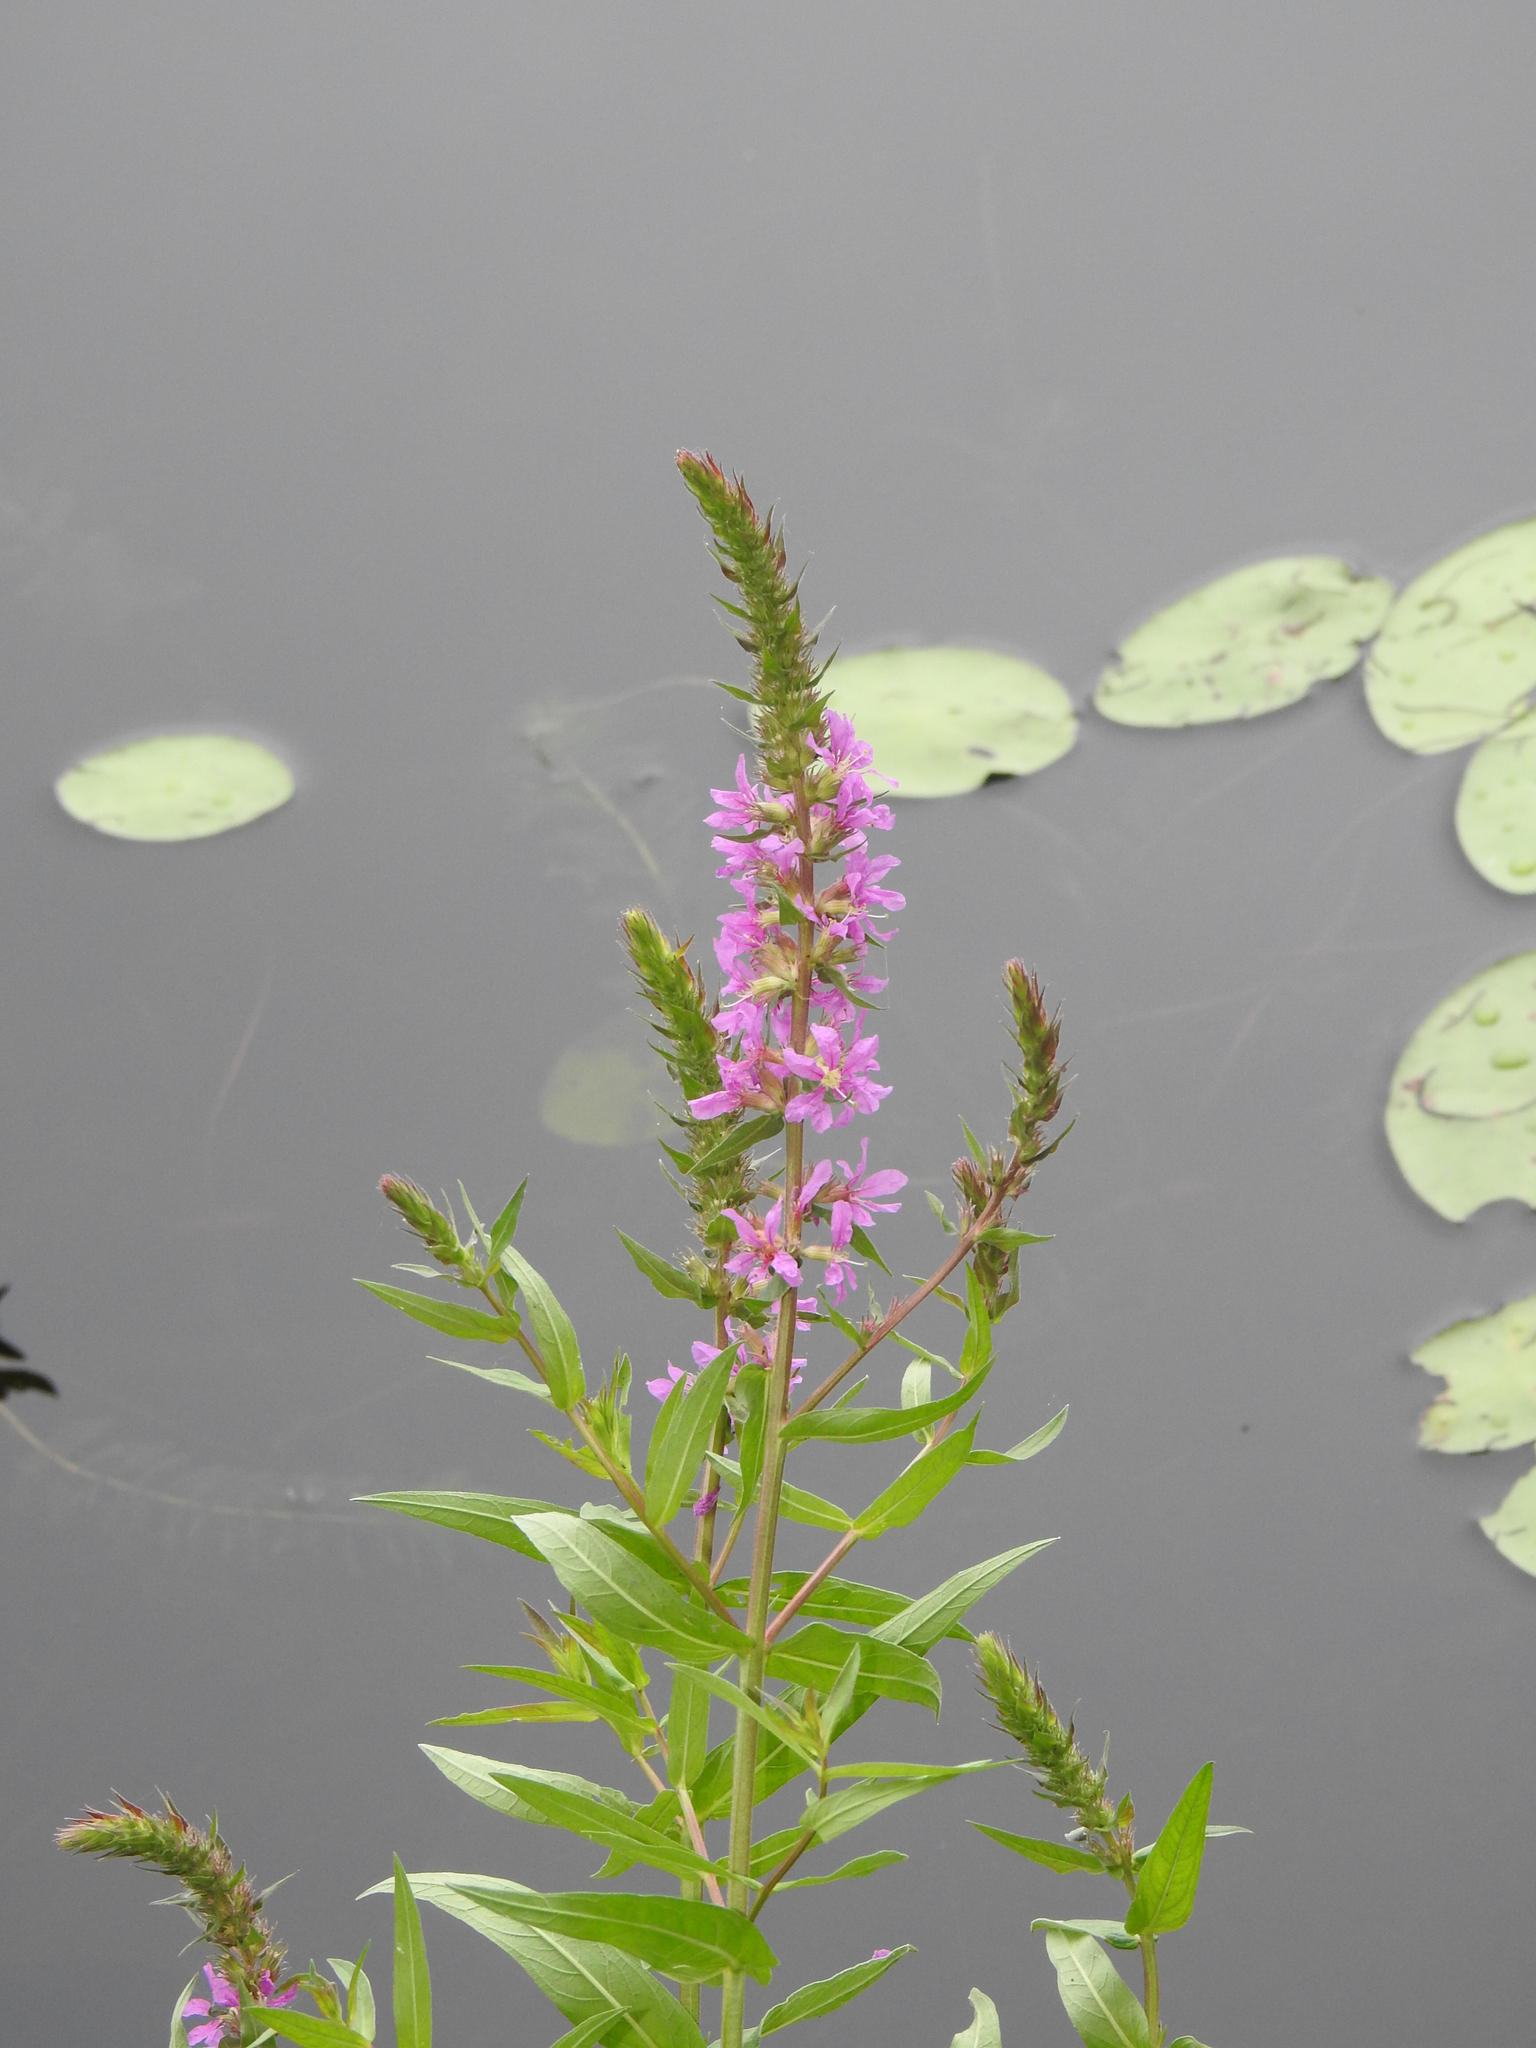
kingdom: Plantae
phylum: Tracheophyta
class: Magnoliopsida
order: Myrtales
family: Lythraceae
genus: Lythrum
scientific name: Lythrum salicaria
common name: Purple loosestrife
